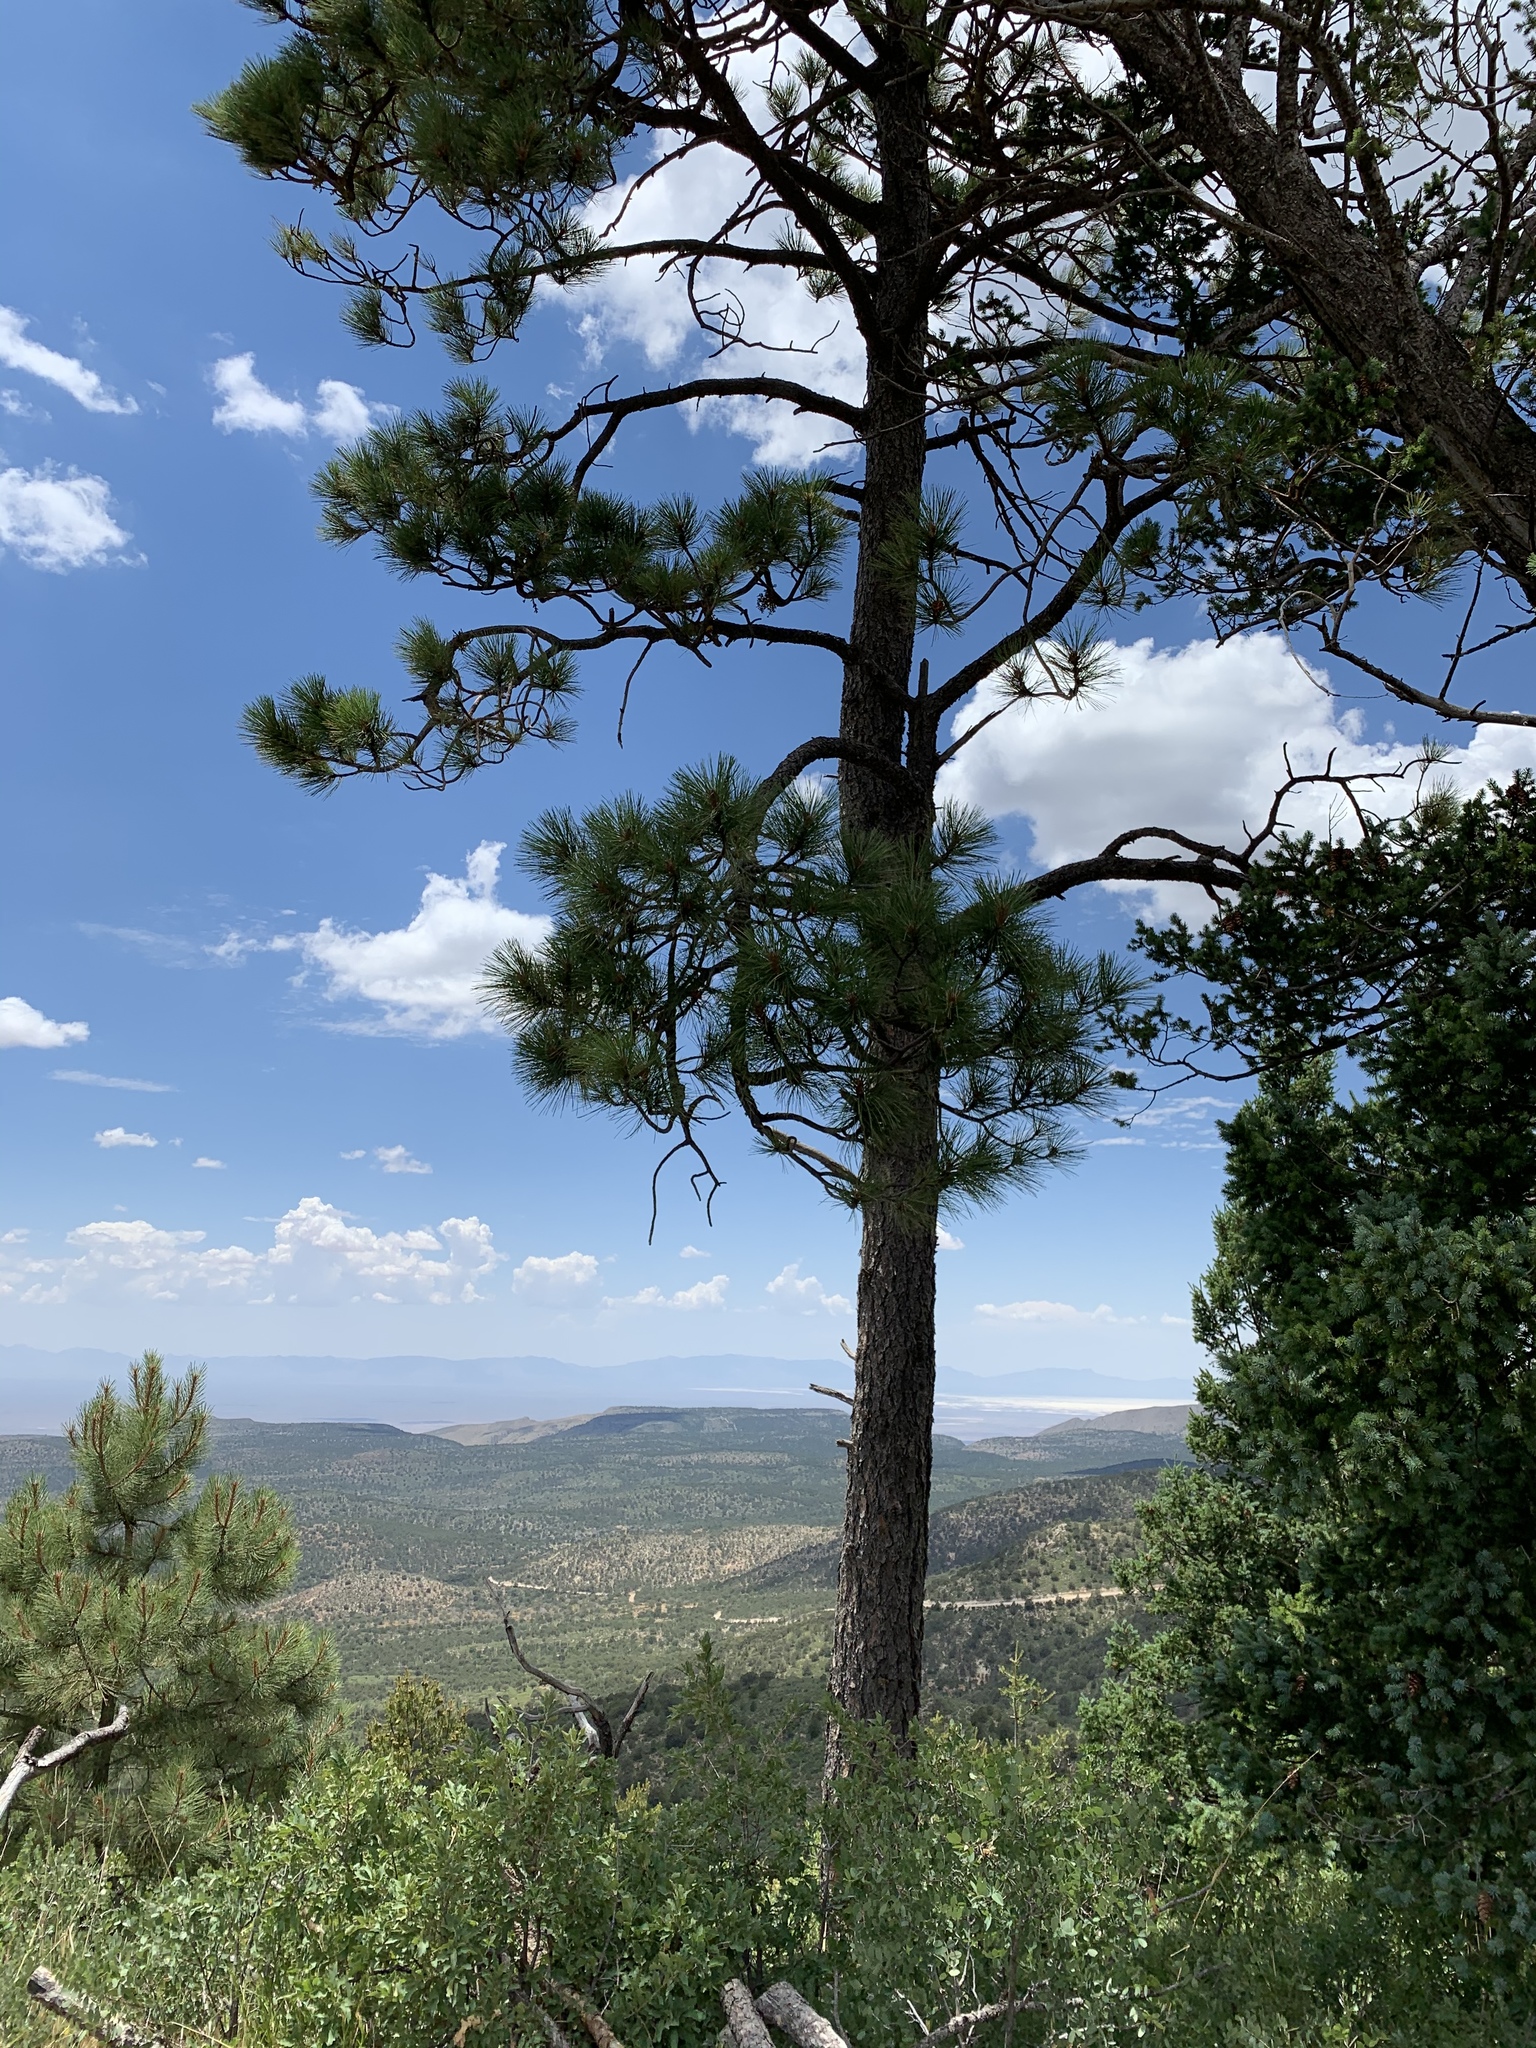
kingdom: Plantae
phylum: Tracheophyta
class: Pinopsida
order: Pinales
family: Pinaceae
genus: Pinus
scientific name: Pinus ponderosa
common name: Western yellow-pine
